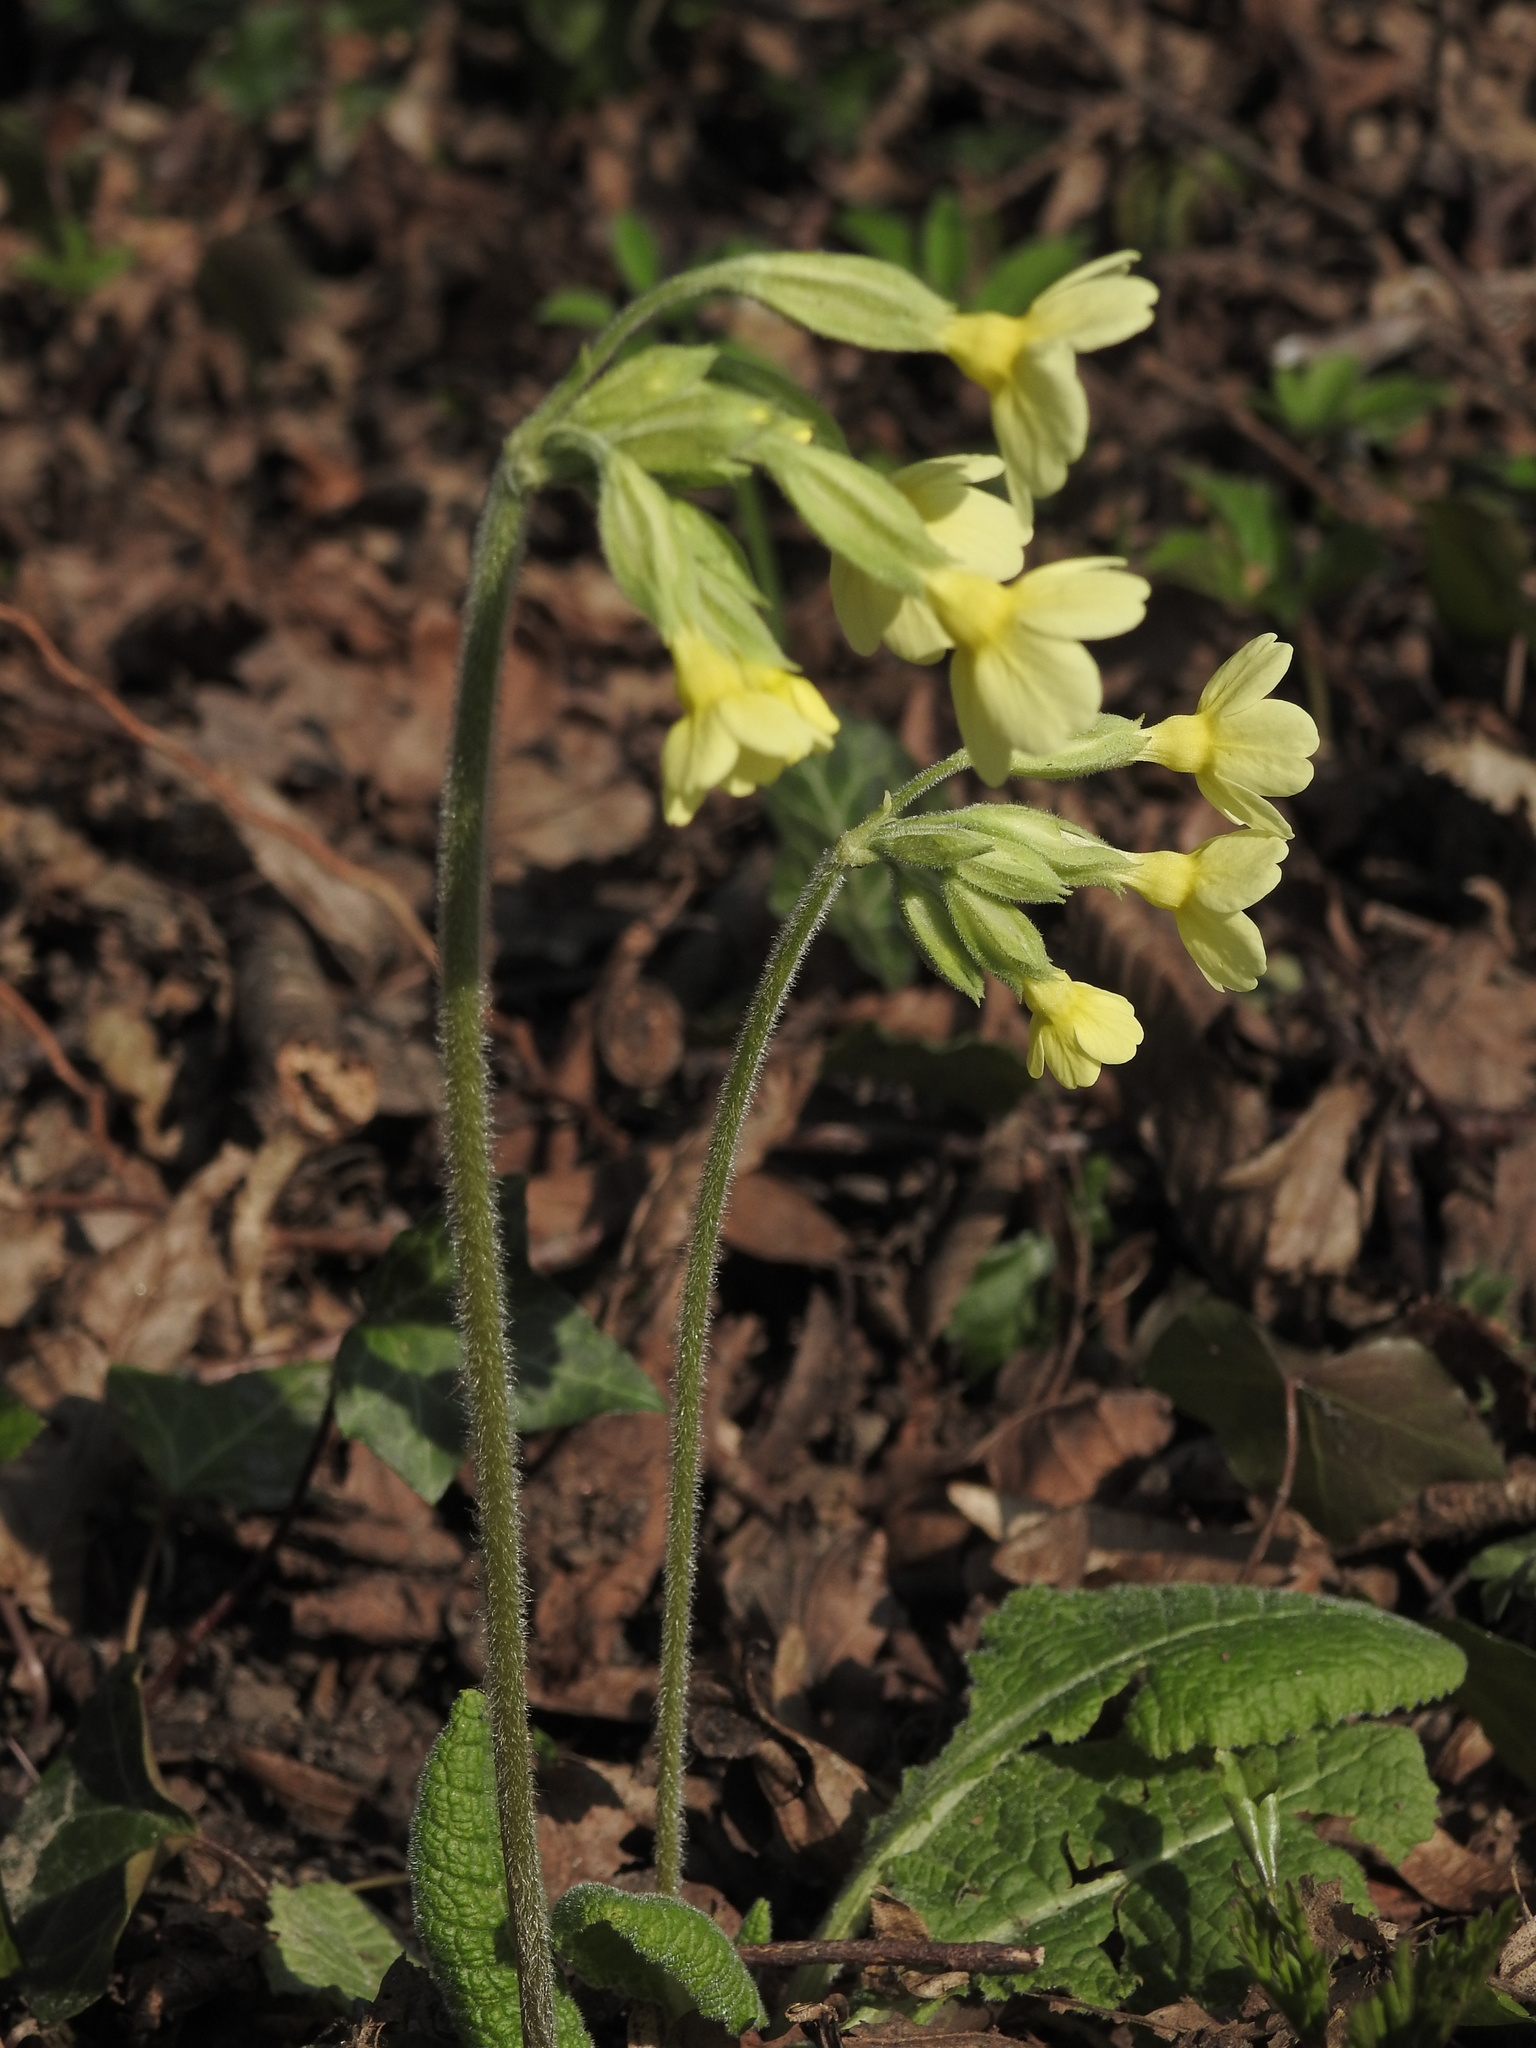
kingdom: Plantae
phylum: Tracheophyta
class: Magnoliopsida
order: Ericales
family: Primulaceae
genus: Primula
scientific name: Primula elatior
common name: Oxlip
